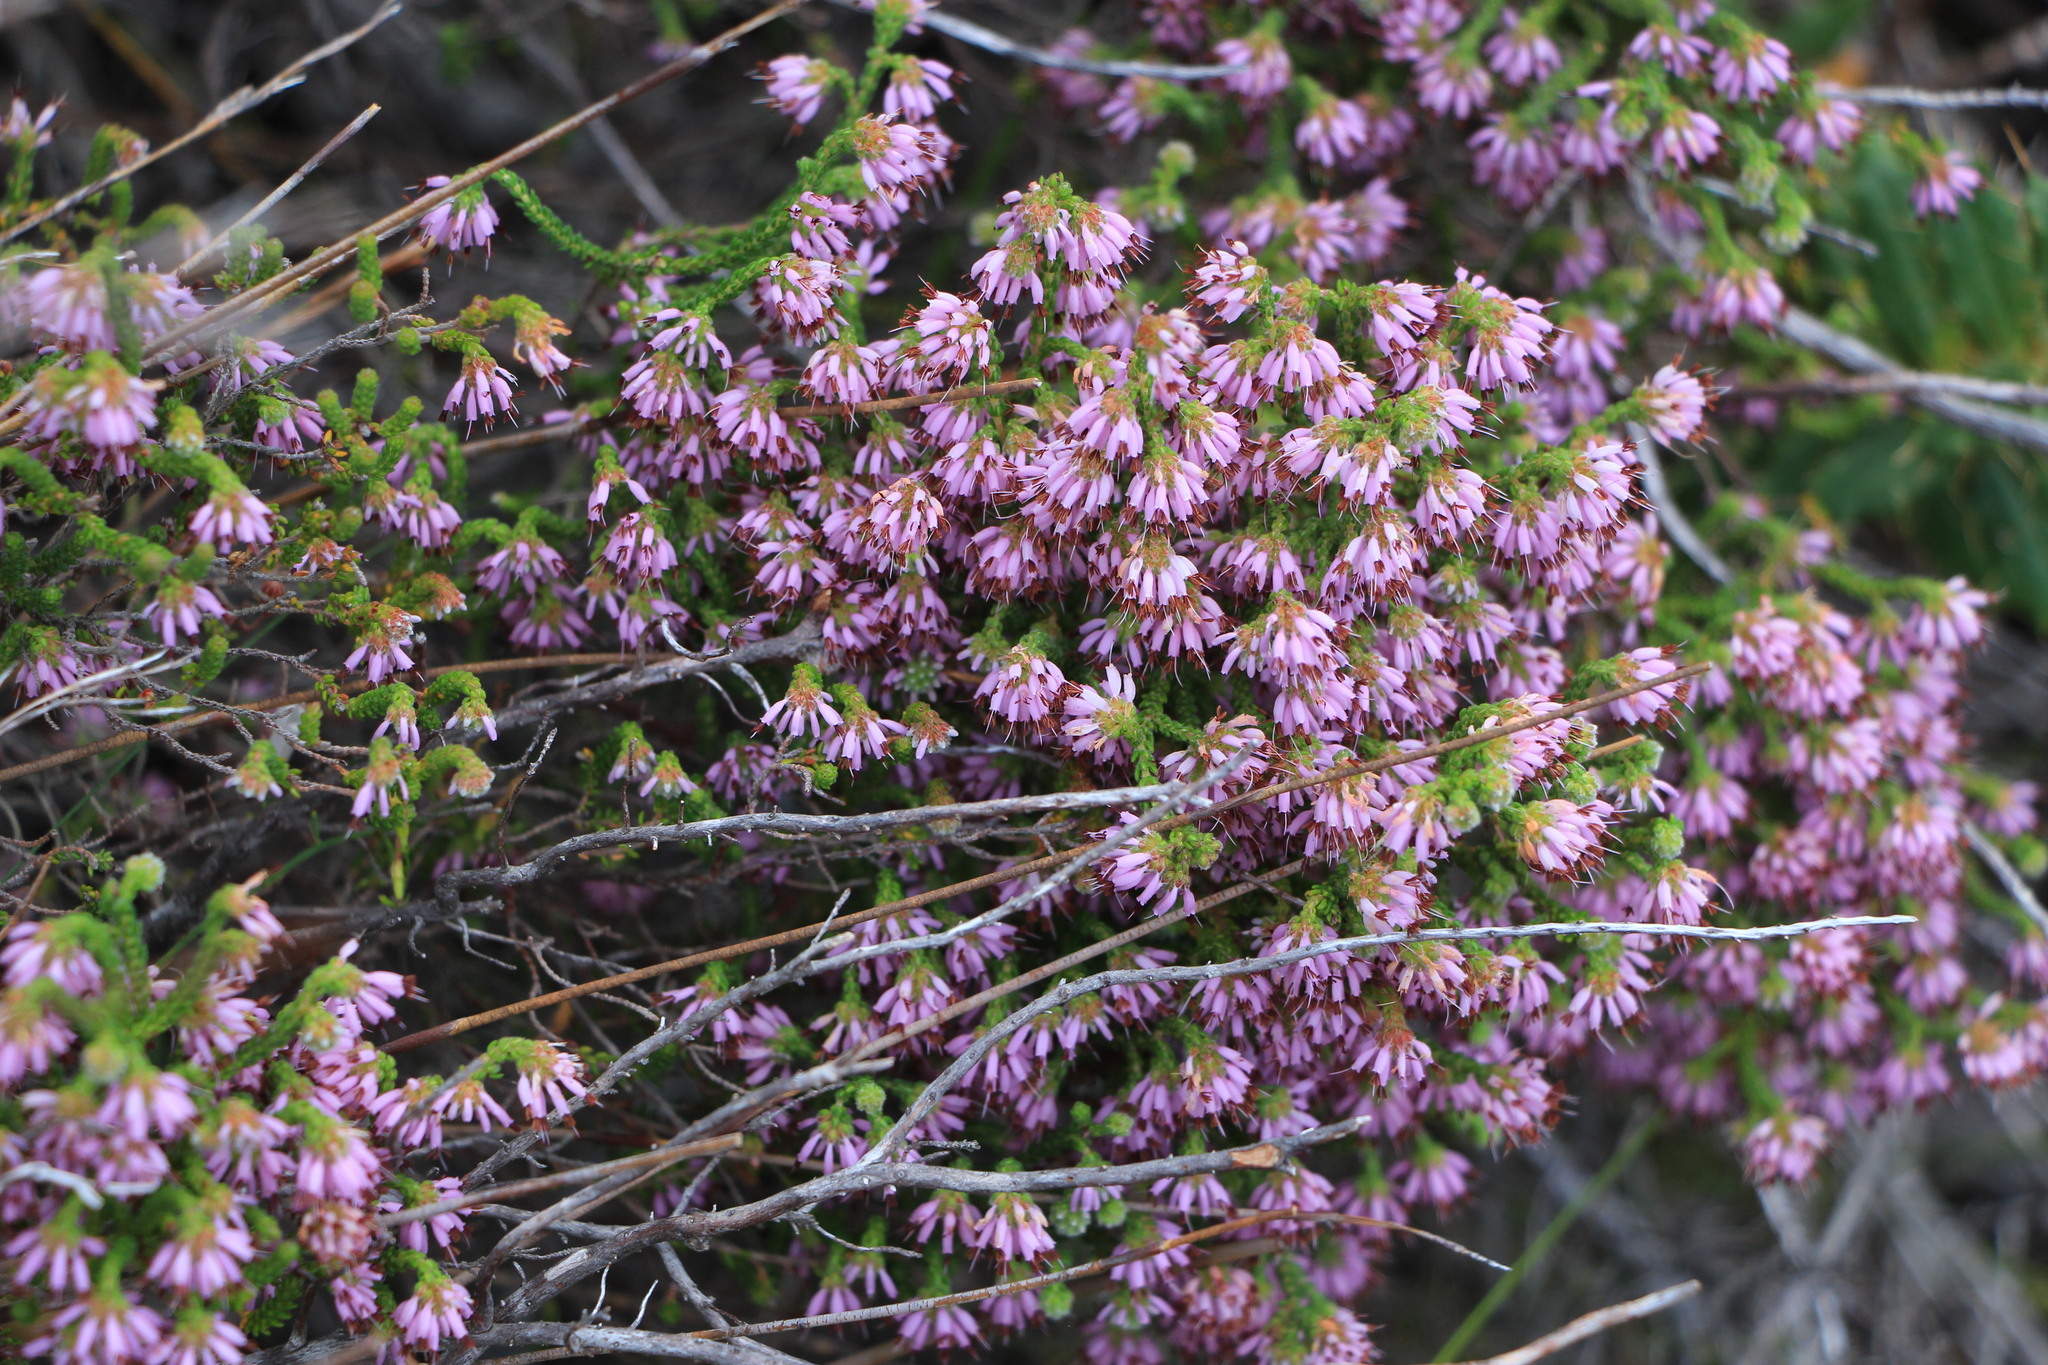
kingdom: Plantae
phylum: Tracheophyta
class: Magnoliopsida
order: Ericales
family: Ericaceae
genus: Erica
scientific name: Erica labialis
